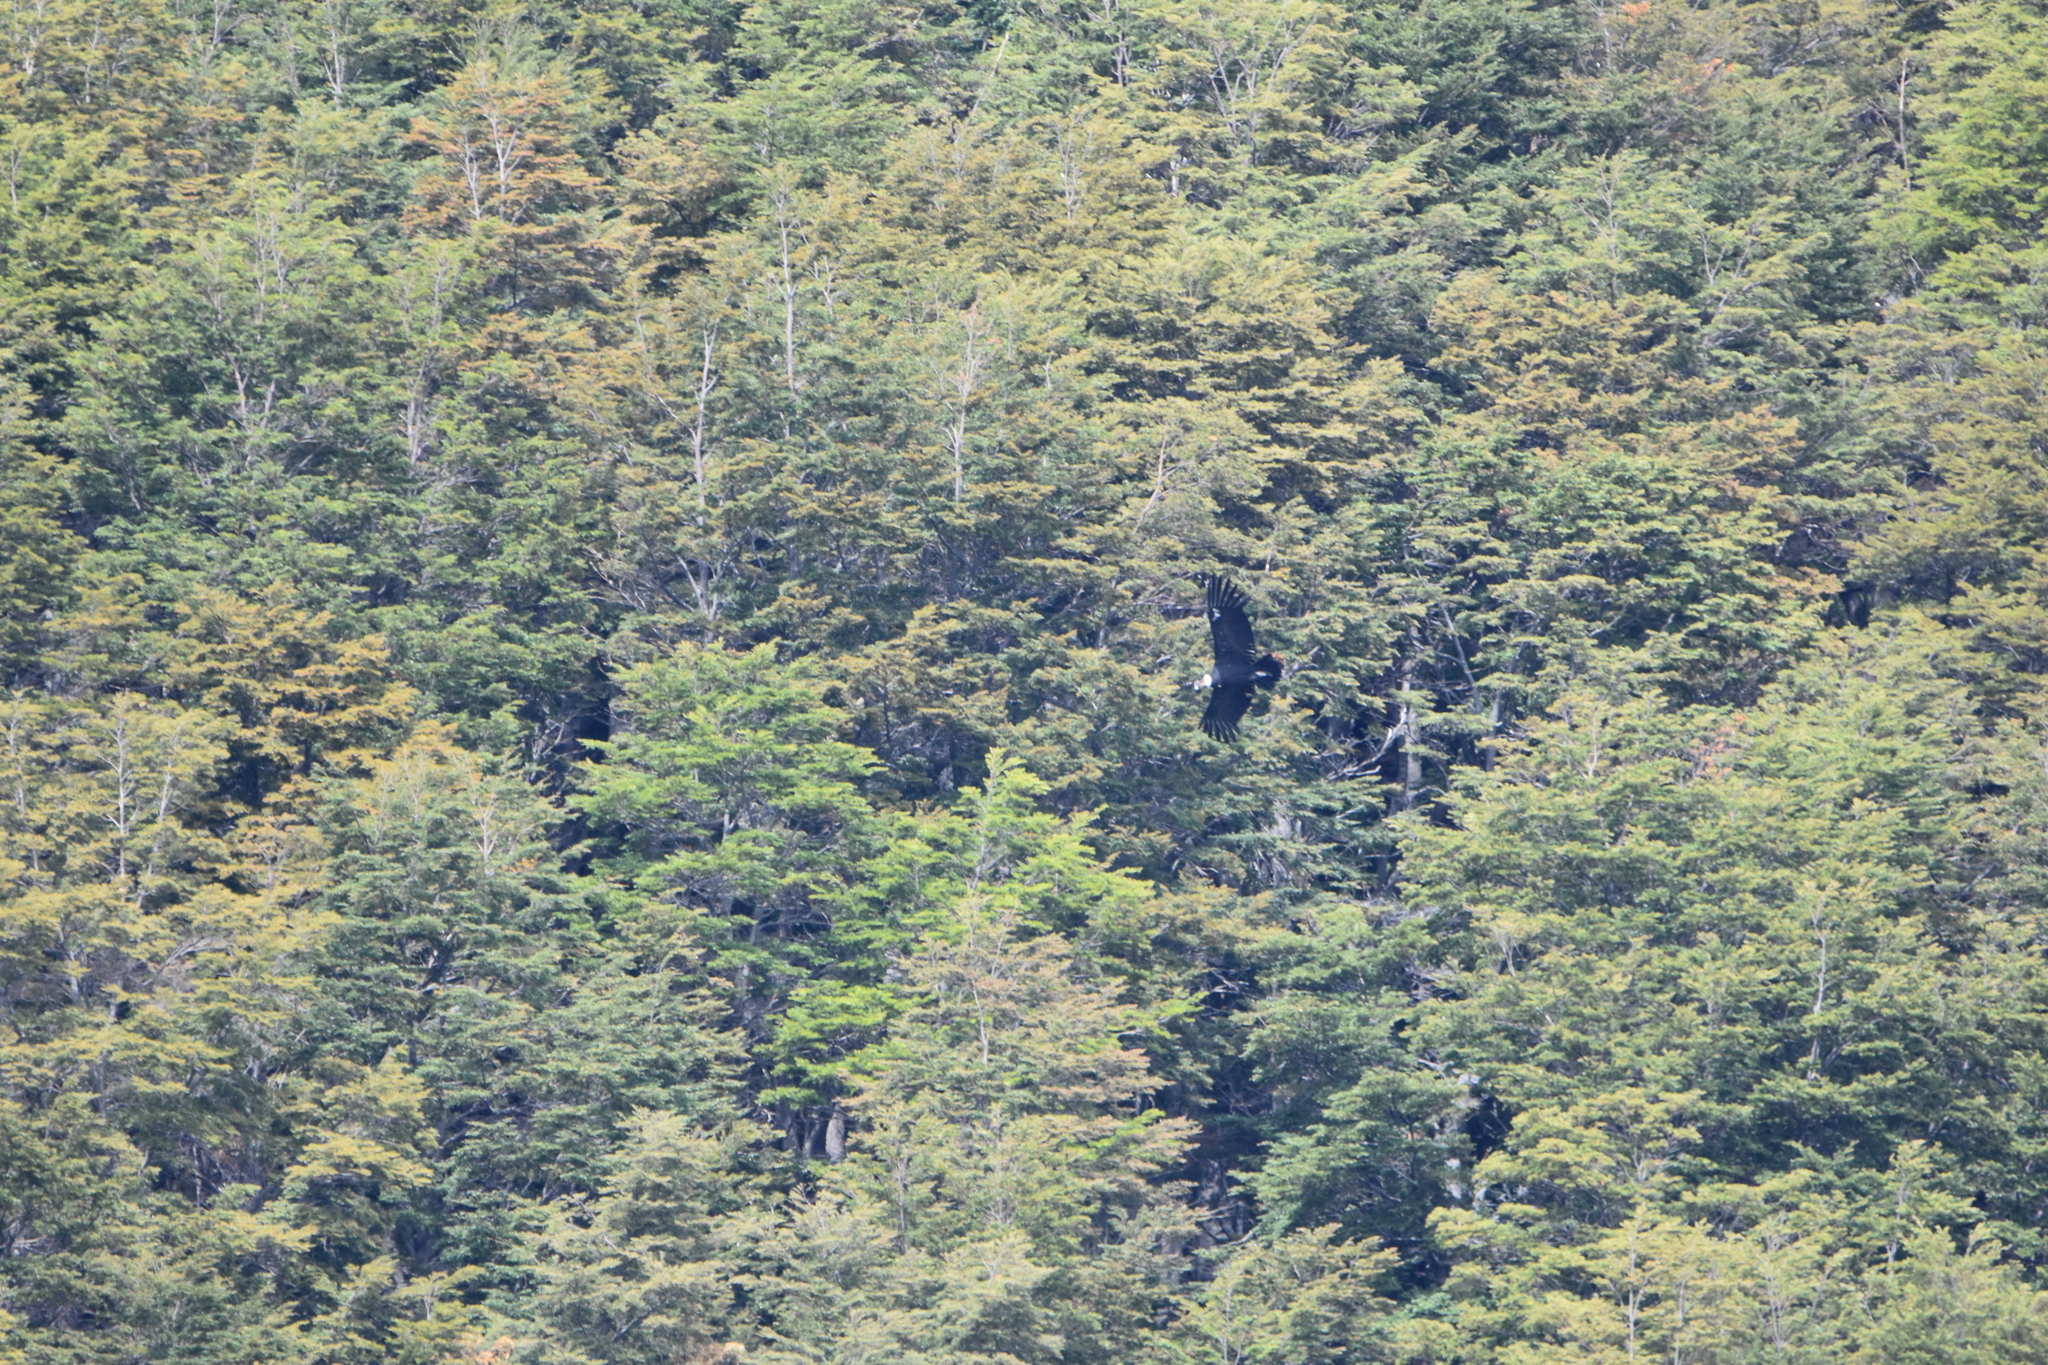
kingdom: Animalia
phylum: Chordata
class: Aves
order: Accipitriformes
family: Cathartidae
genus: Vultur
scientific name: Vultur gryphus
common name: Andean condor
